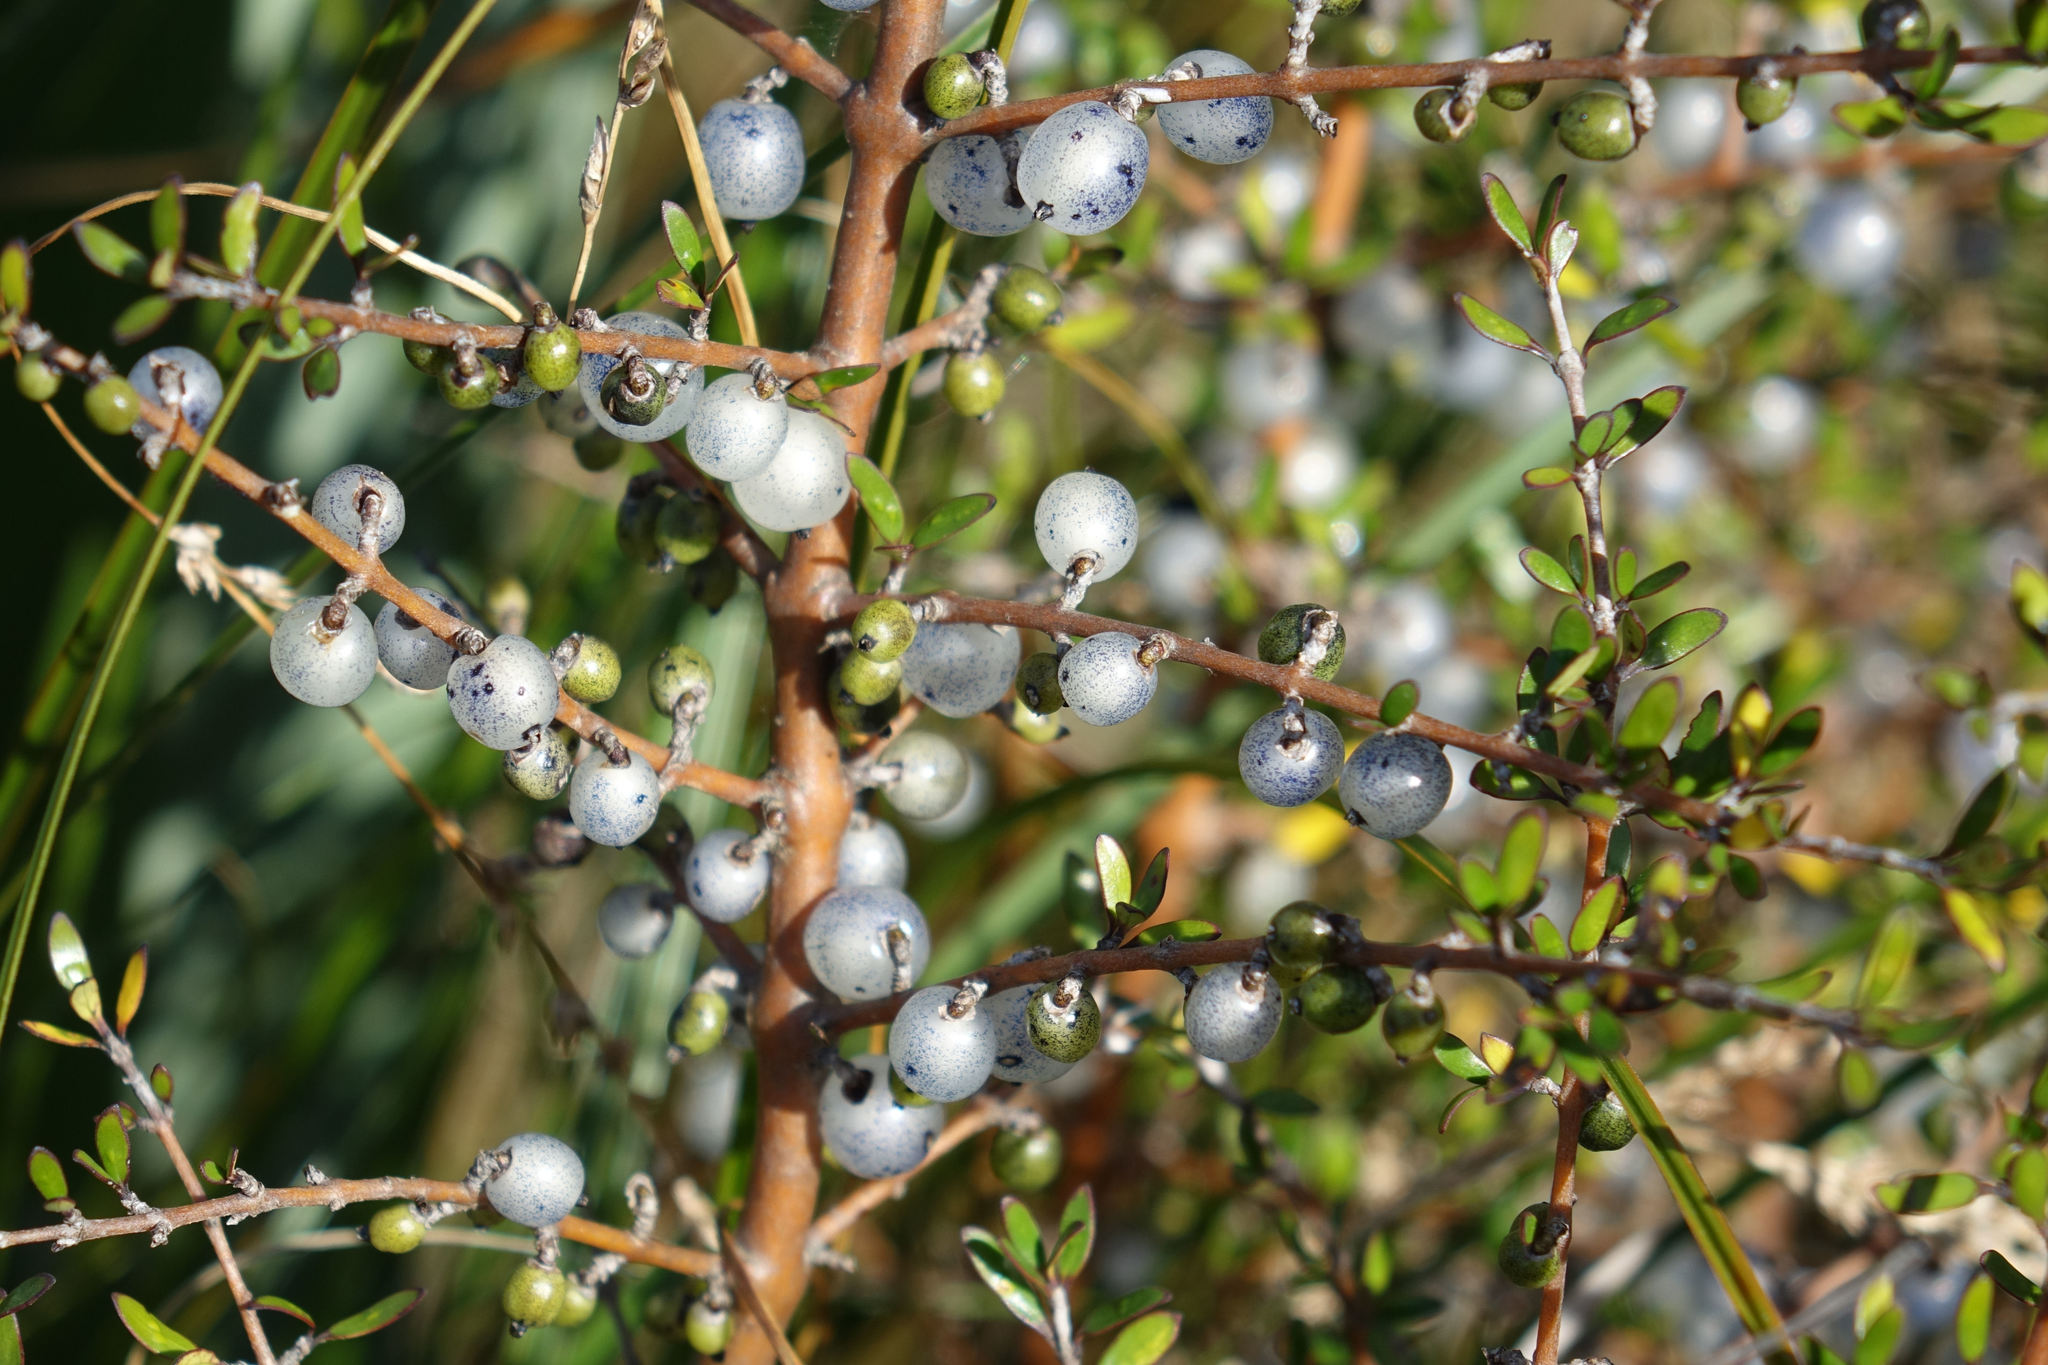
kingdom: Plantae
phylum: Tracheophyta
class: Magnoliopsida
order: Gentianales
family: Rubiaceae
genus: Coprosma
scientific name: Coprosma propinqua
